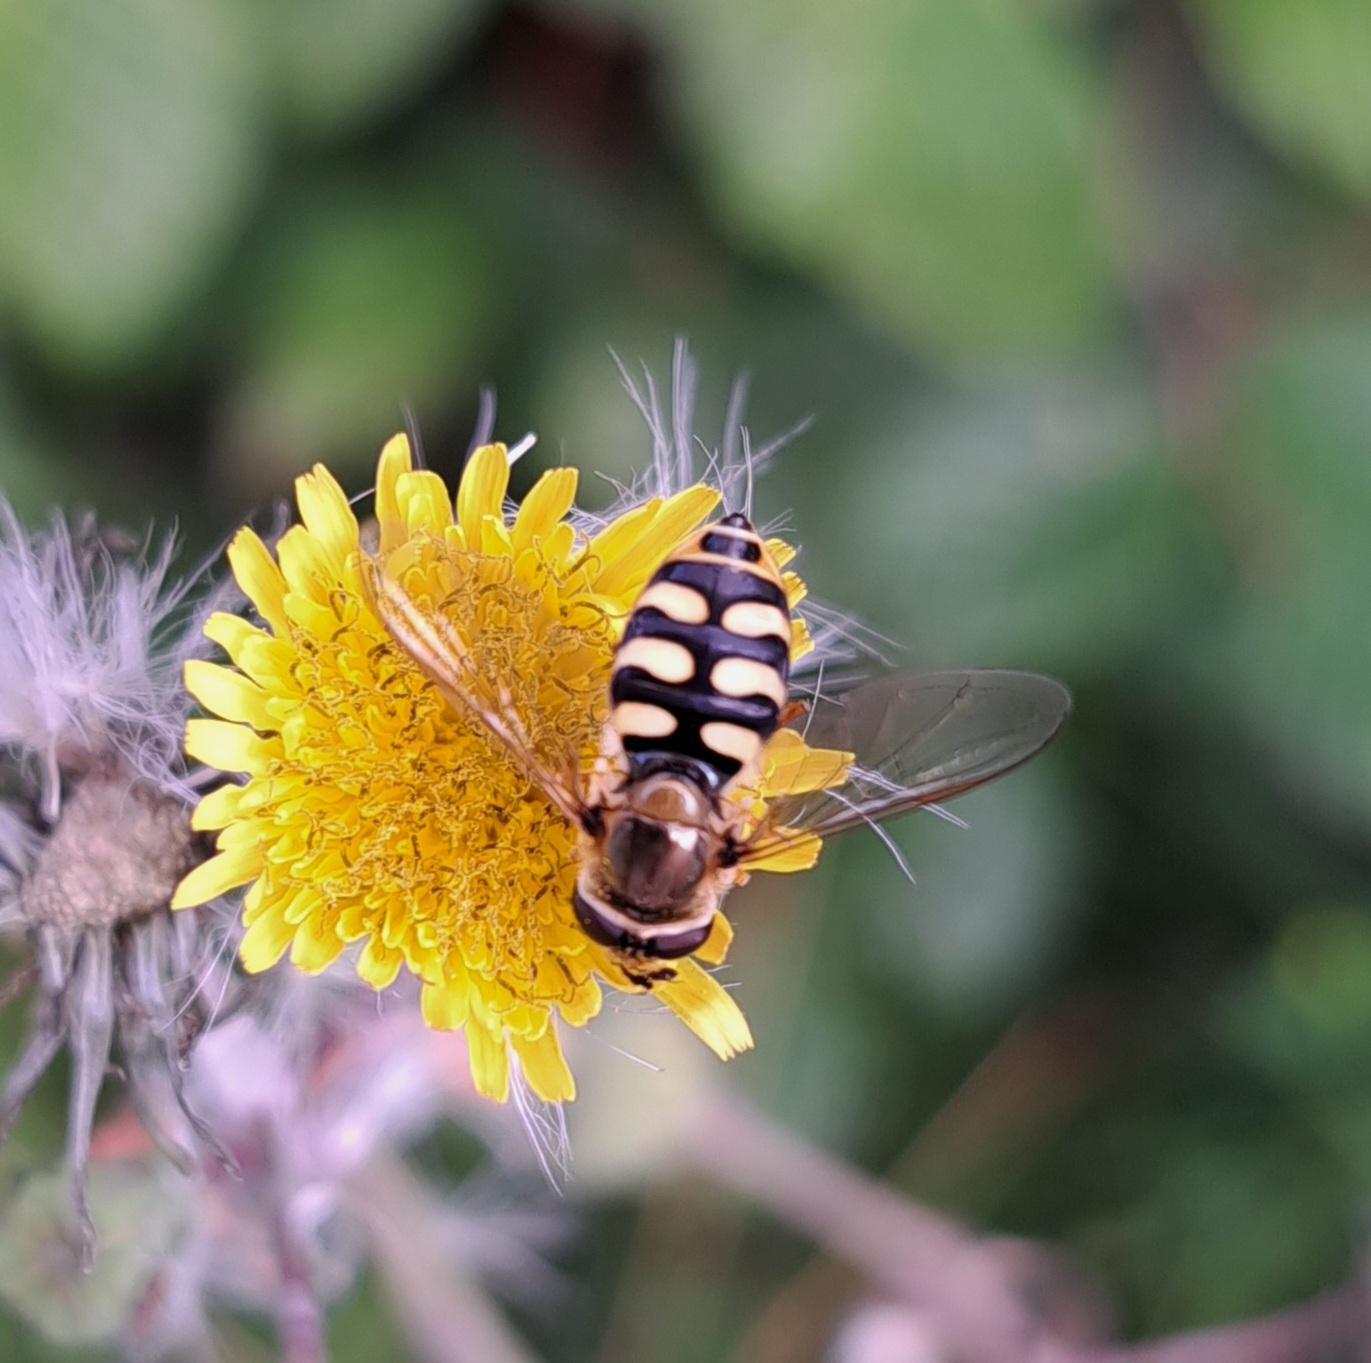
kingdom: Animalia
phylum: Arthropoda
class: Insecta
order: Diptera
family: Syrphidae
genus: Eupeodes
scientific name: Eupeodes corollae
